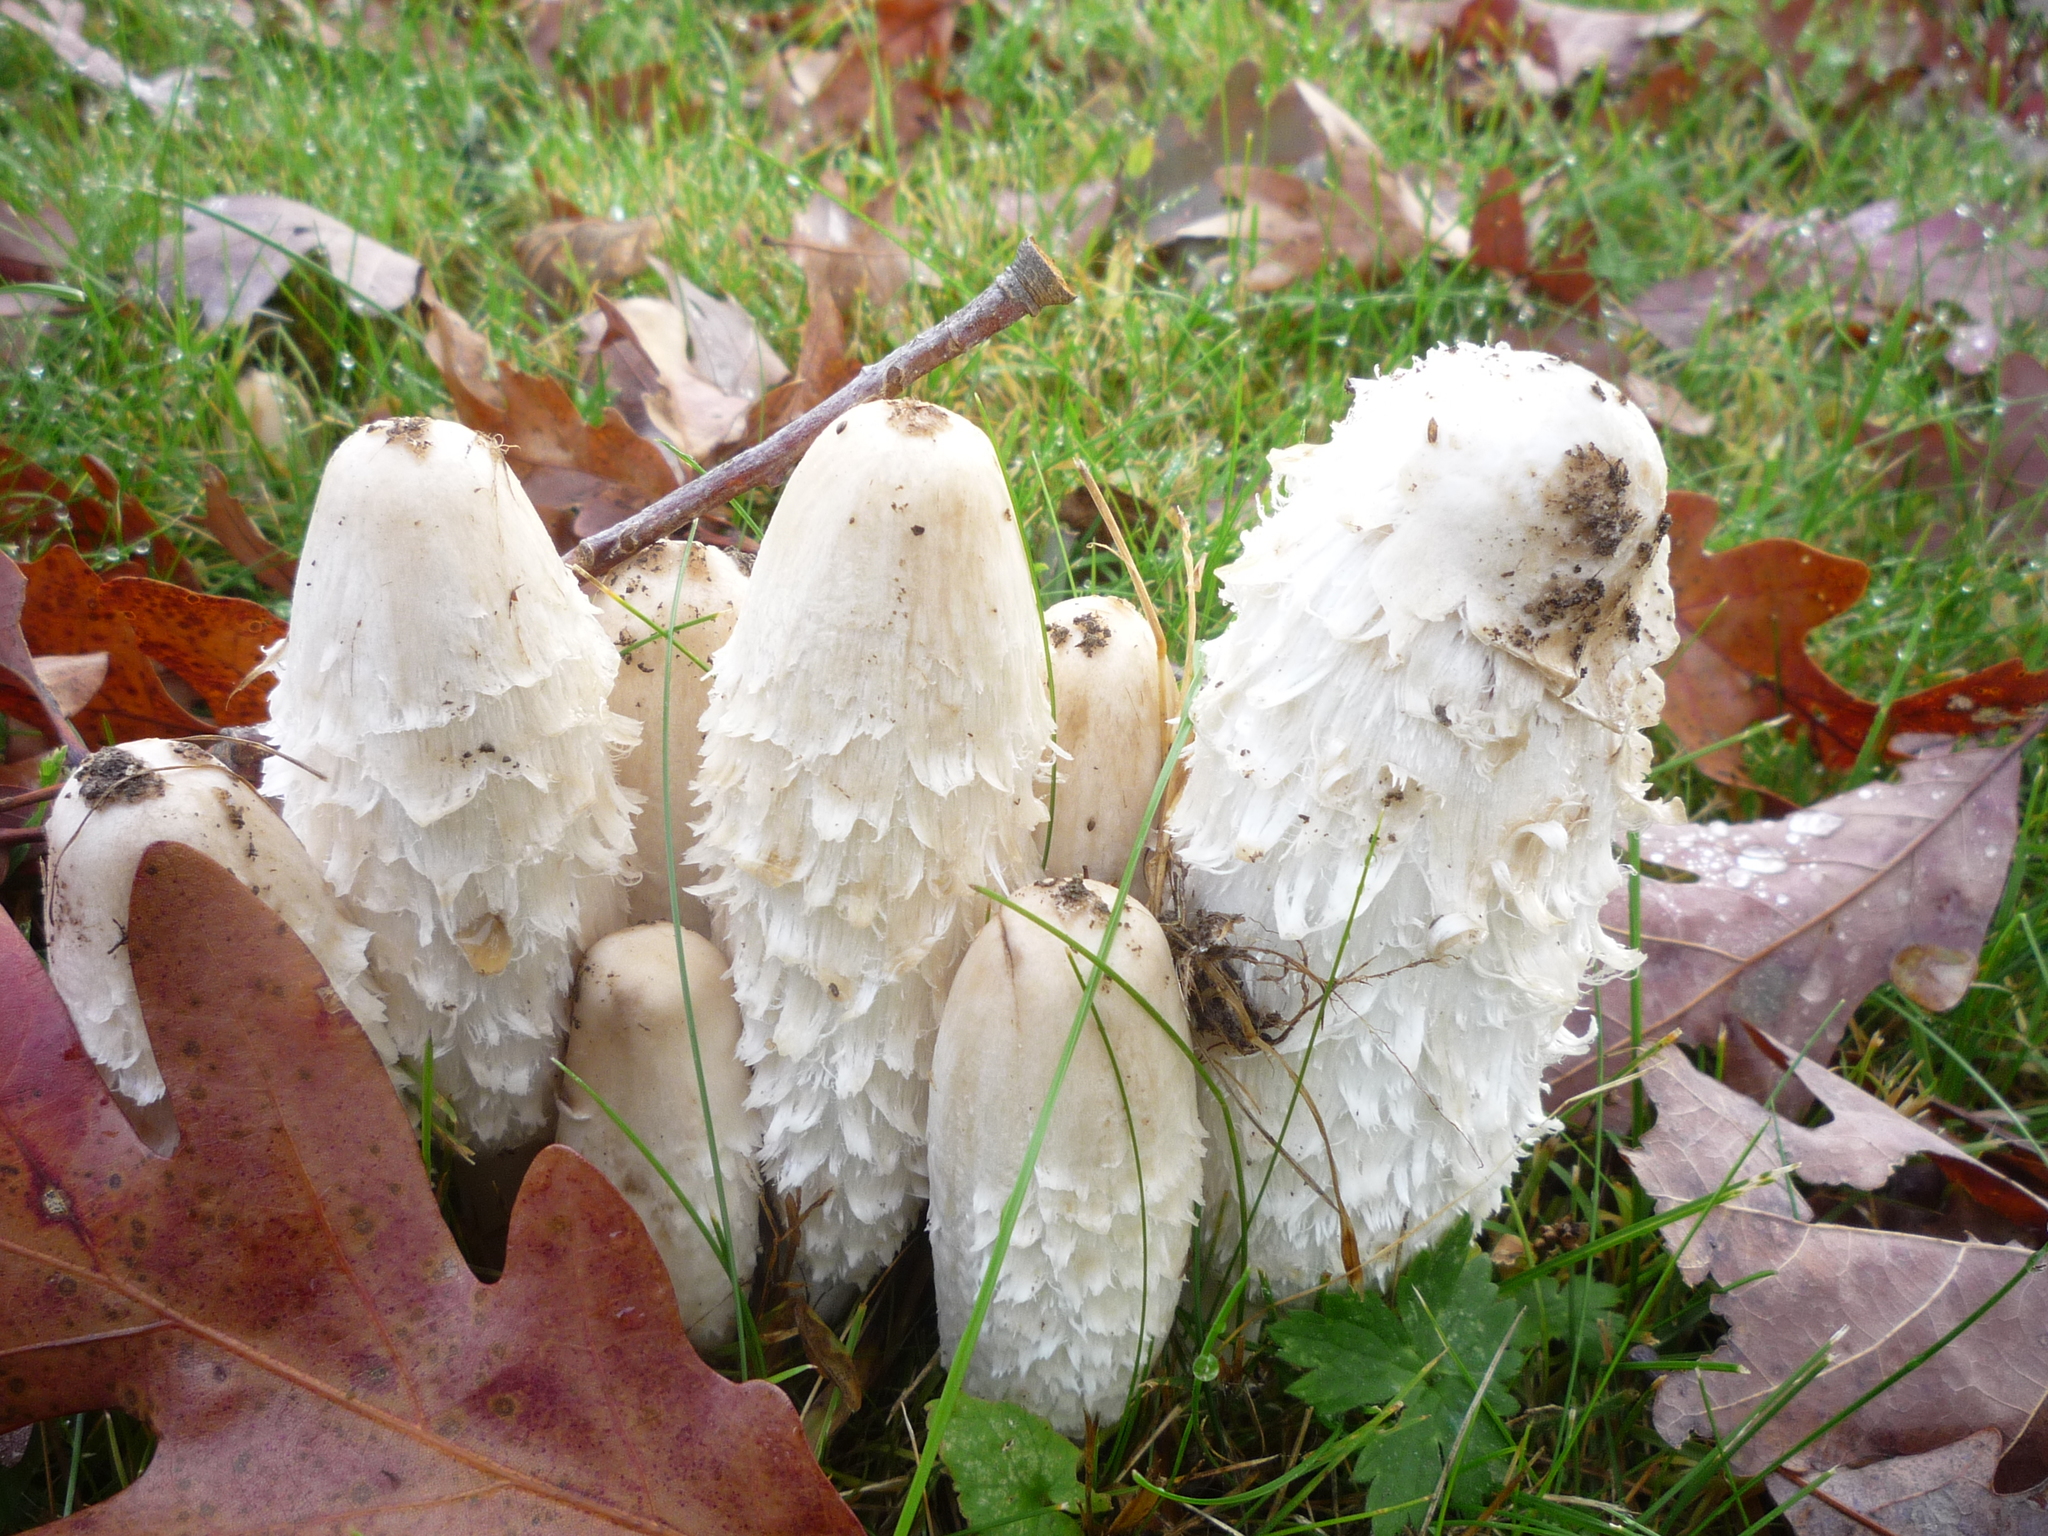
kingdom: Fungi
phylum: Basidiomycota
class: Agaricomycetes
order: Agaricales
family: Agaricaceae
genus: Coprinus
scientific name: Coprinus comatus
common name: Lawyer's wig
